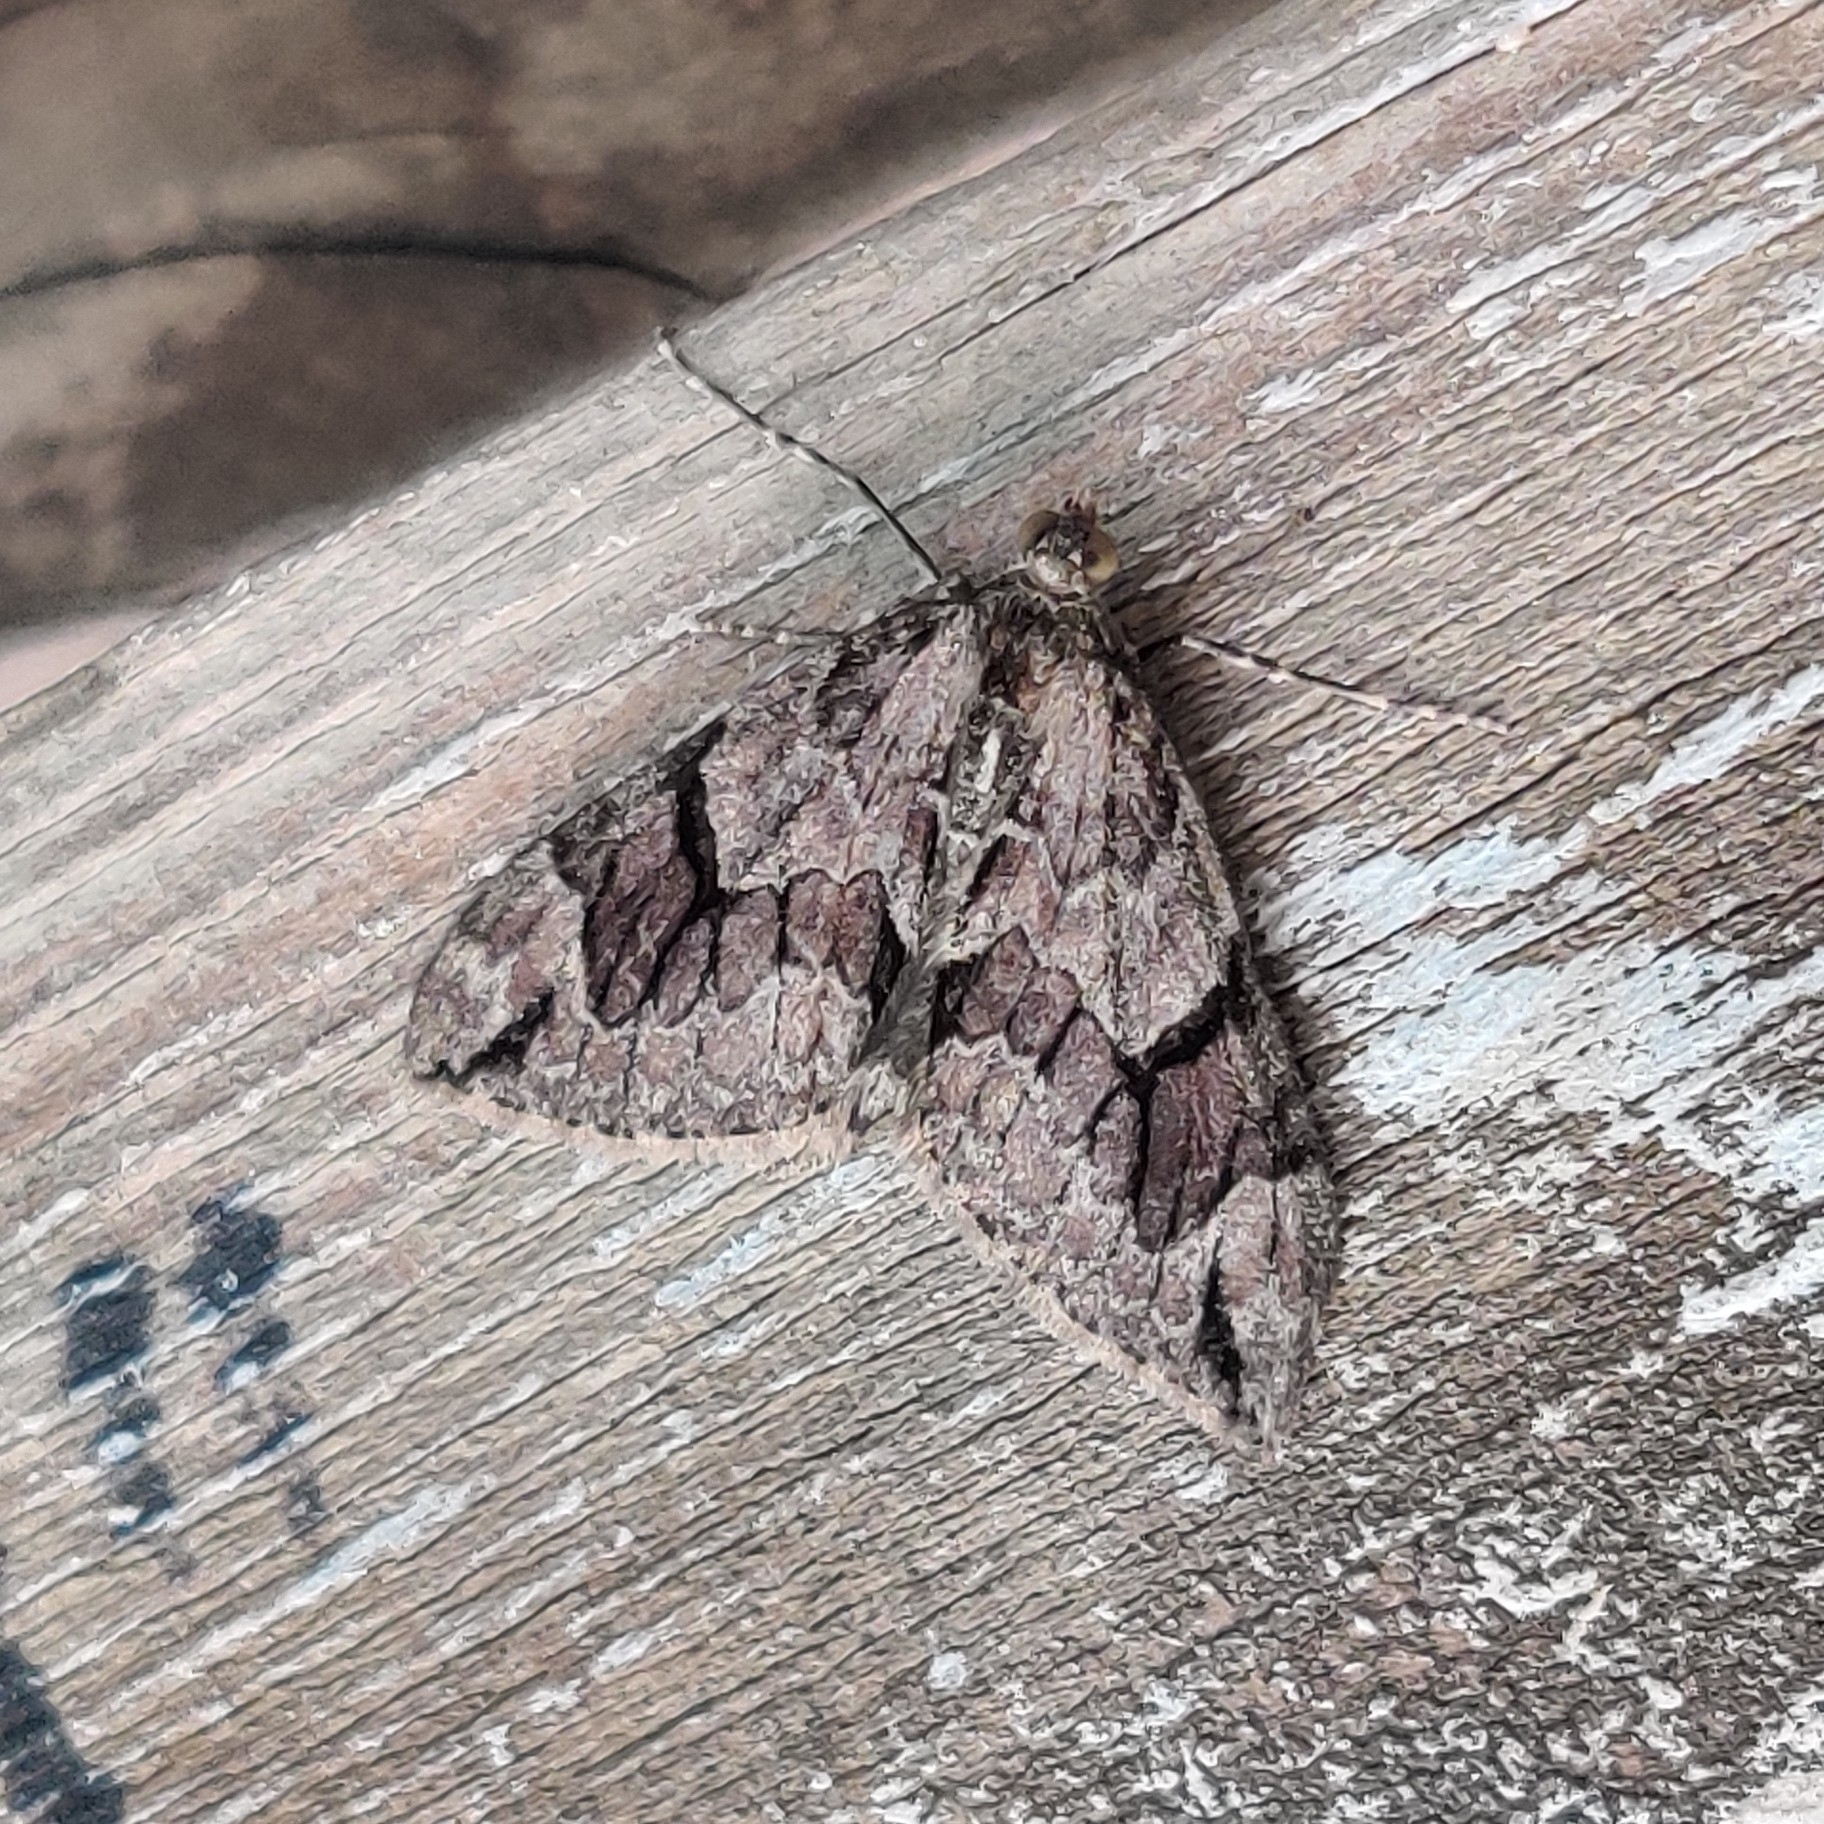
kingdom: Animalia
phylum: Arthropoda
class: Insecta
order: Lepidoptera
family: Geometridae
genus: Heterothera
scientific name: Heterothera consimilis
